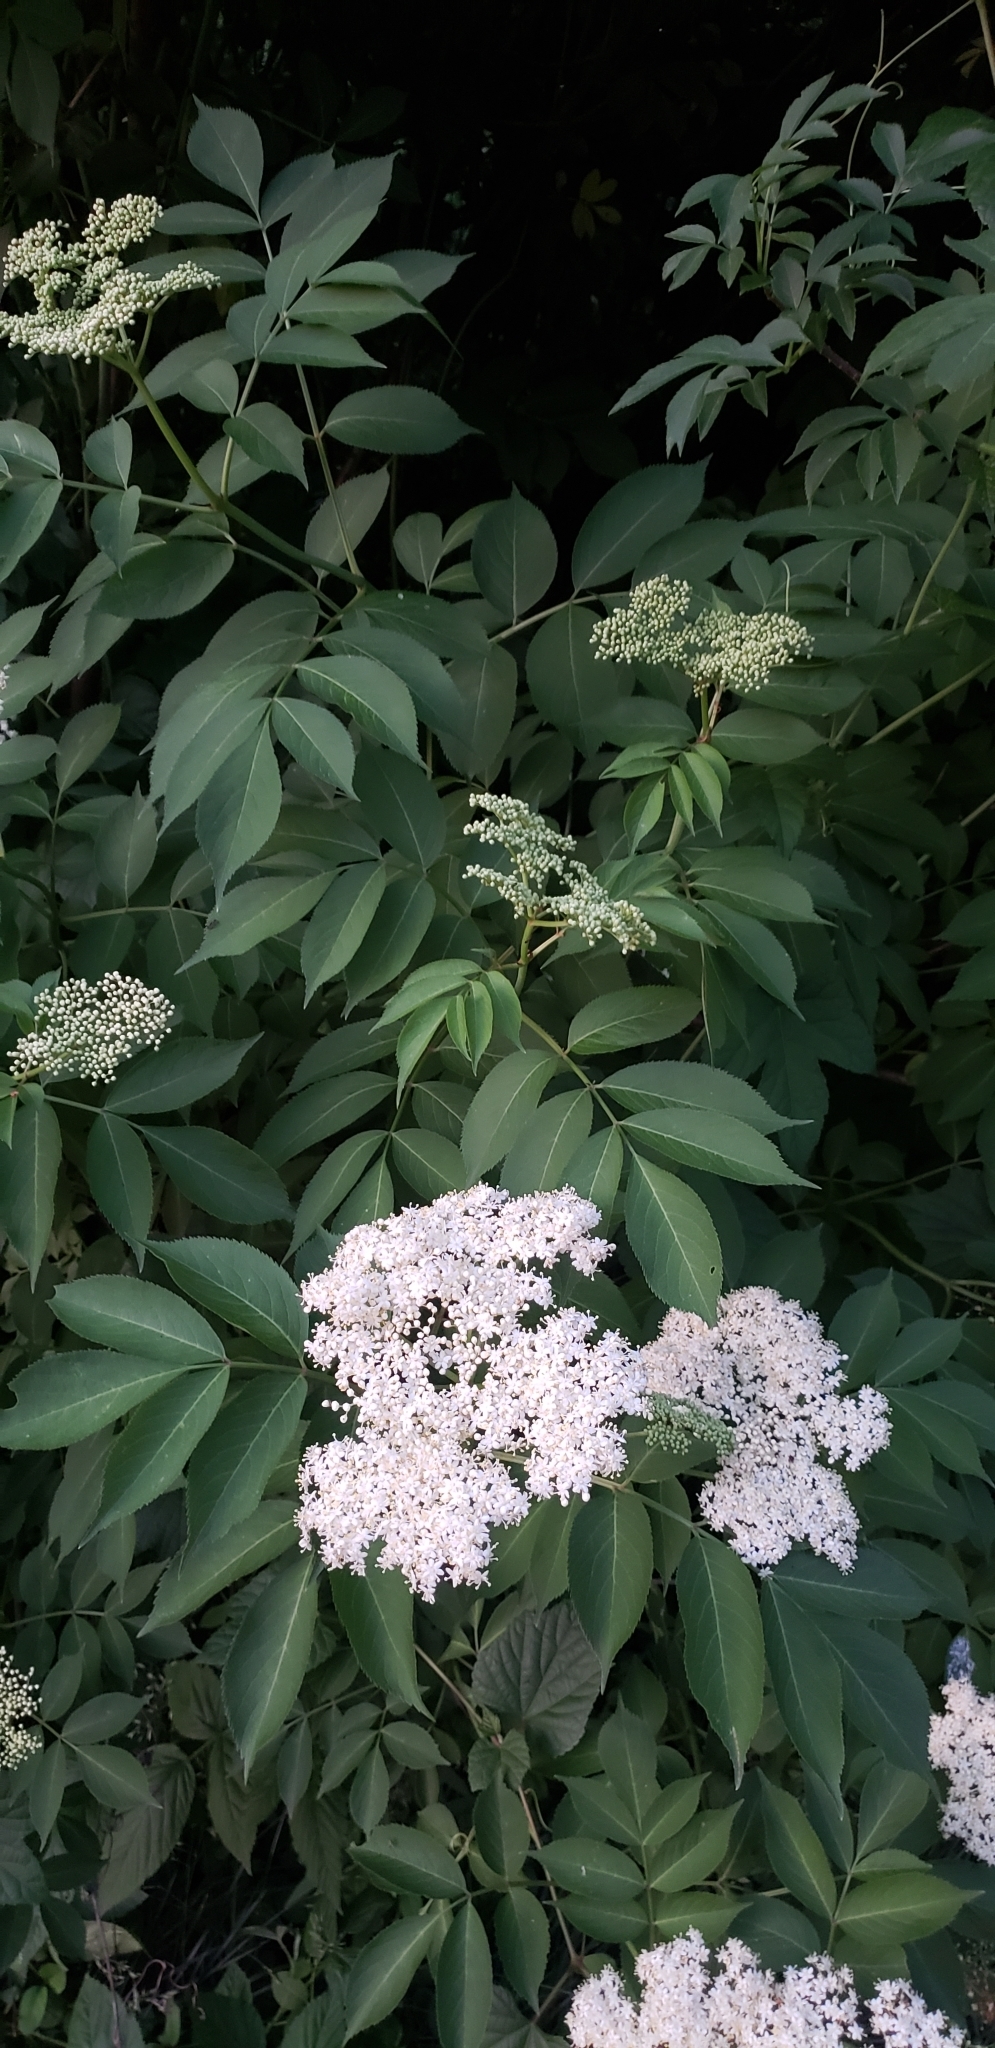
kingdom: Plantae
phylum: Tracheophyta
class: Magnoliopsida
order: Dipsacales
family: Viburnaceae
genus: Sambucus
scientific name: Sambucus canadensis
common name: American elder
